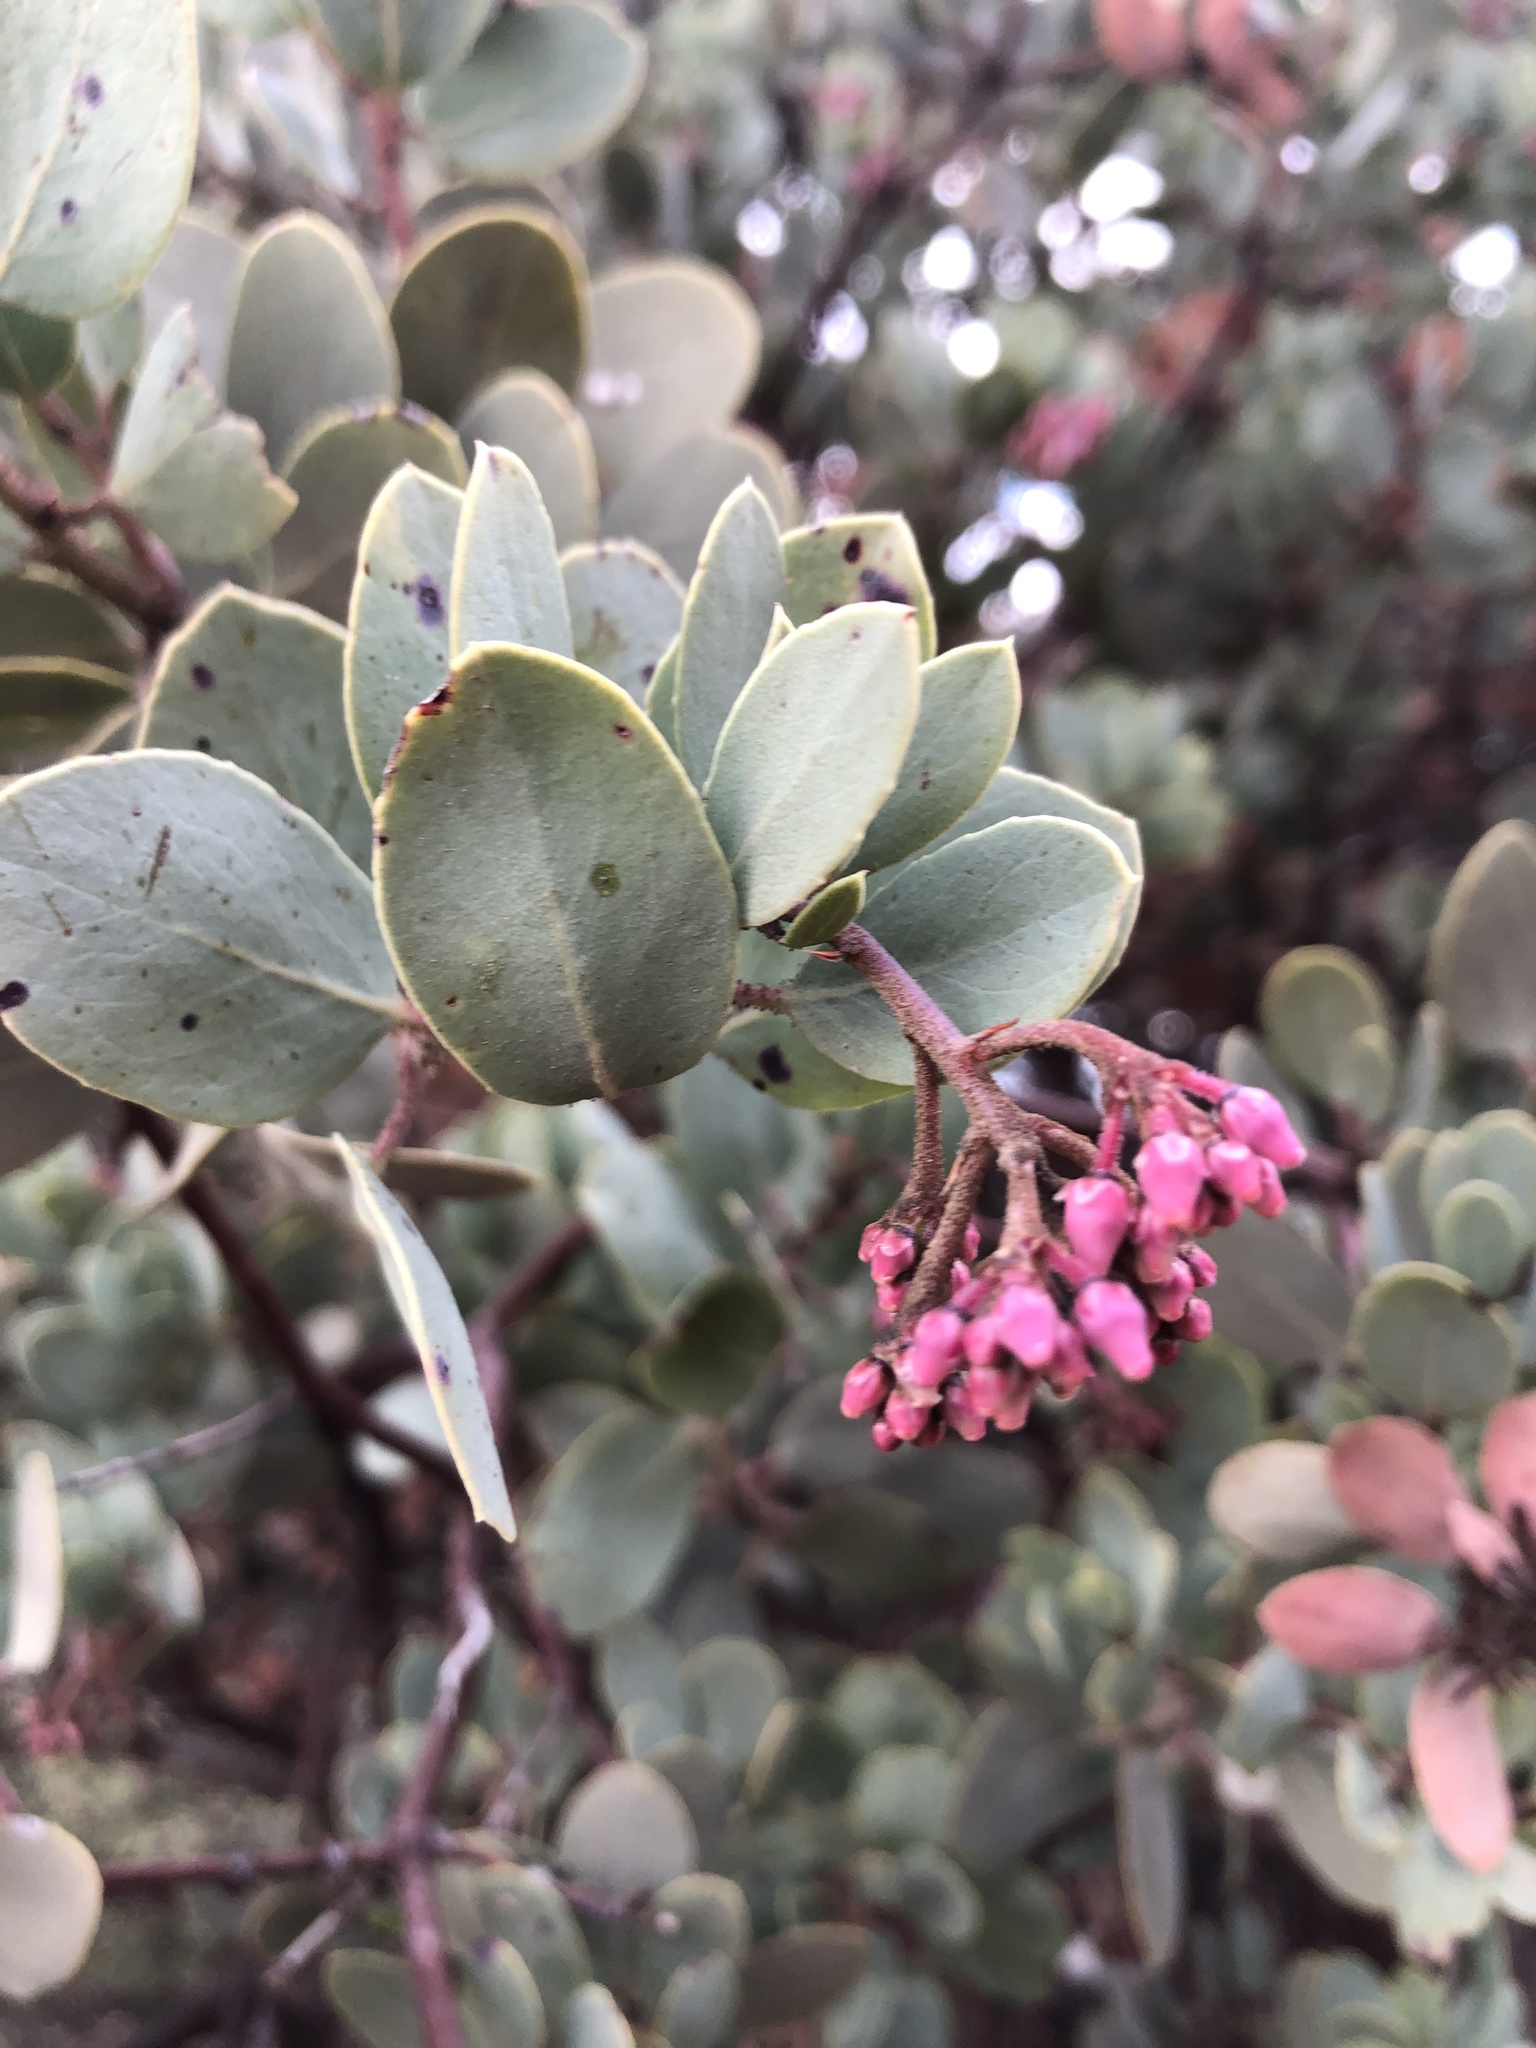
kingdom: Plantae
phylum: Tracheophyta
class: Magnoliopsida
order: Ericales
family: Ericaceae
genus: Arctostaphylos
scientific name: Arctostaphylos viscida
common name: White-leaf manzanita
